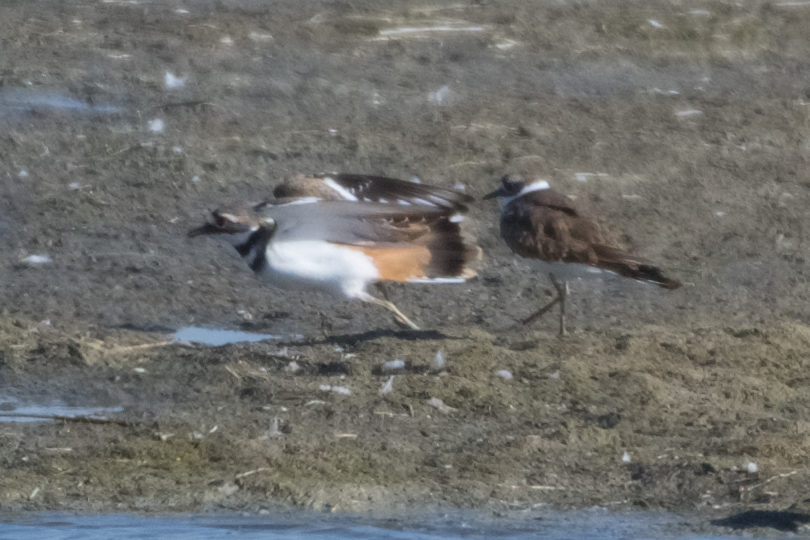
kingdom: Animalia
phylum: Chordata
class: Aves
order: Charadriiformes
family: Charadriidae
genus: Charadrius
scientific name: Charadrius vociferus
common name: Killdeer
